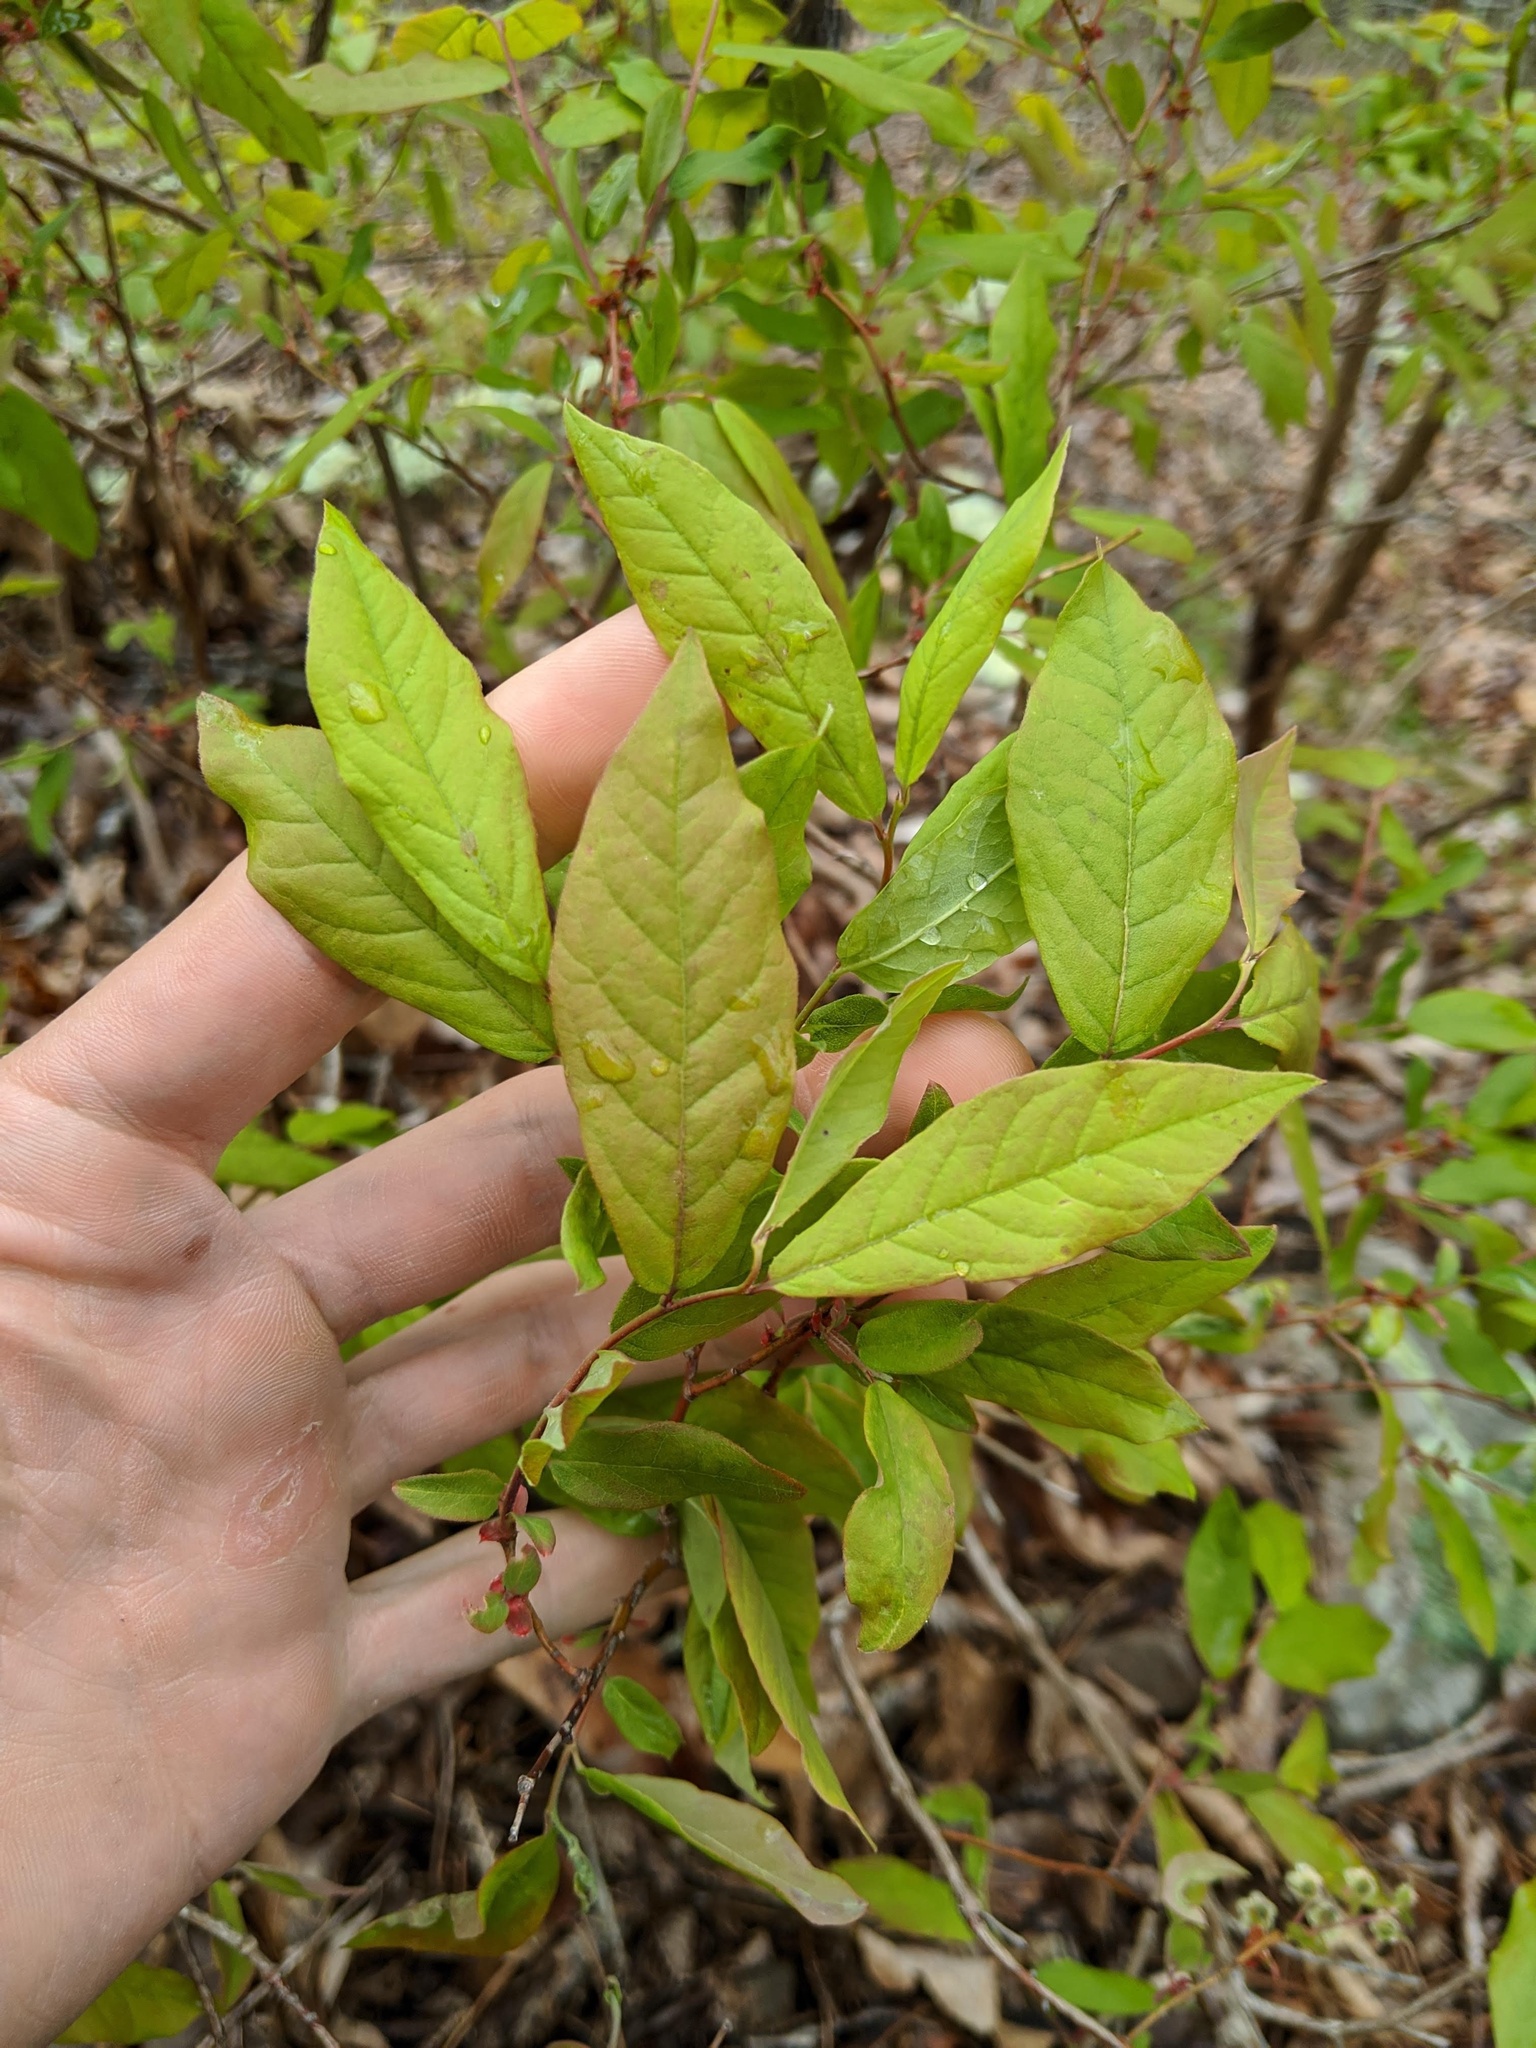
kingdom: Plantae
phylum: Tracheophyta
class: Magnoliopsida
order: Ericales
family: Ericaceae
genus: Vaccinium
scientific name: Vaccinium stamineum
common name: Deerberry
